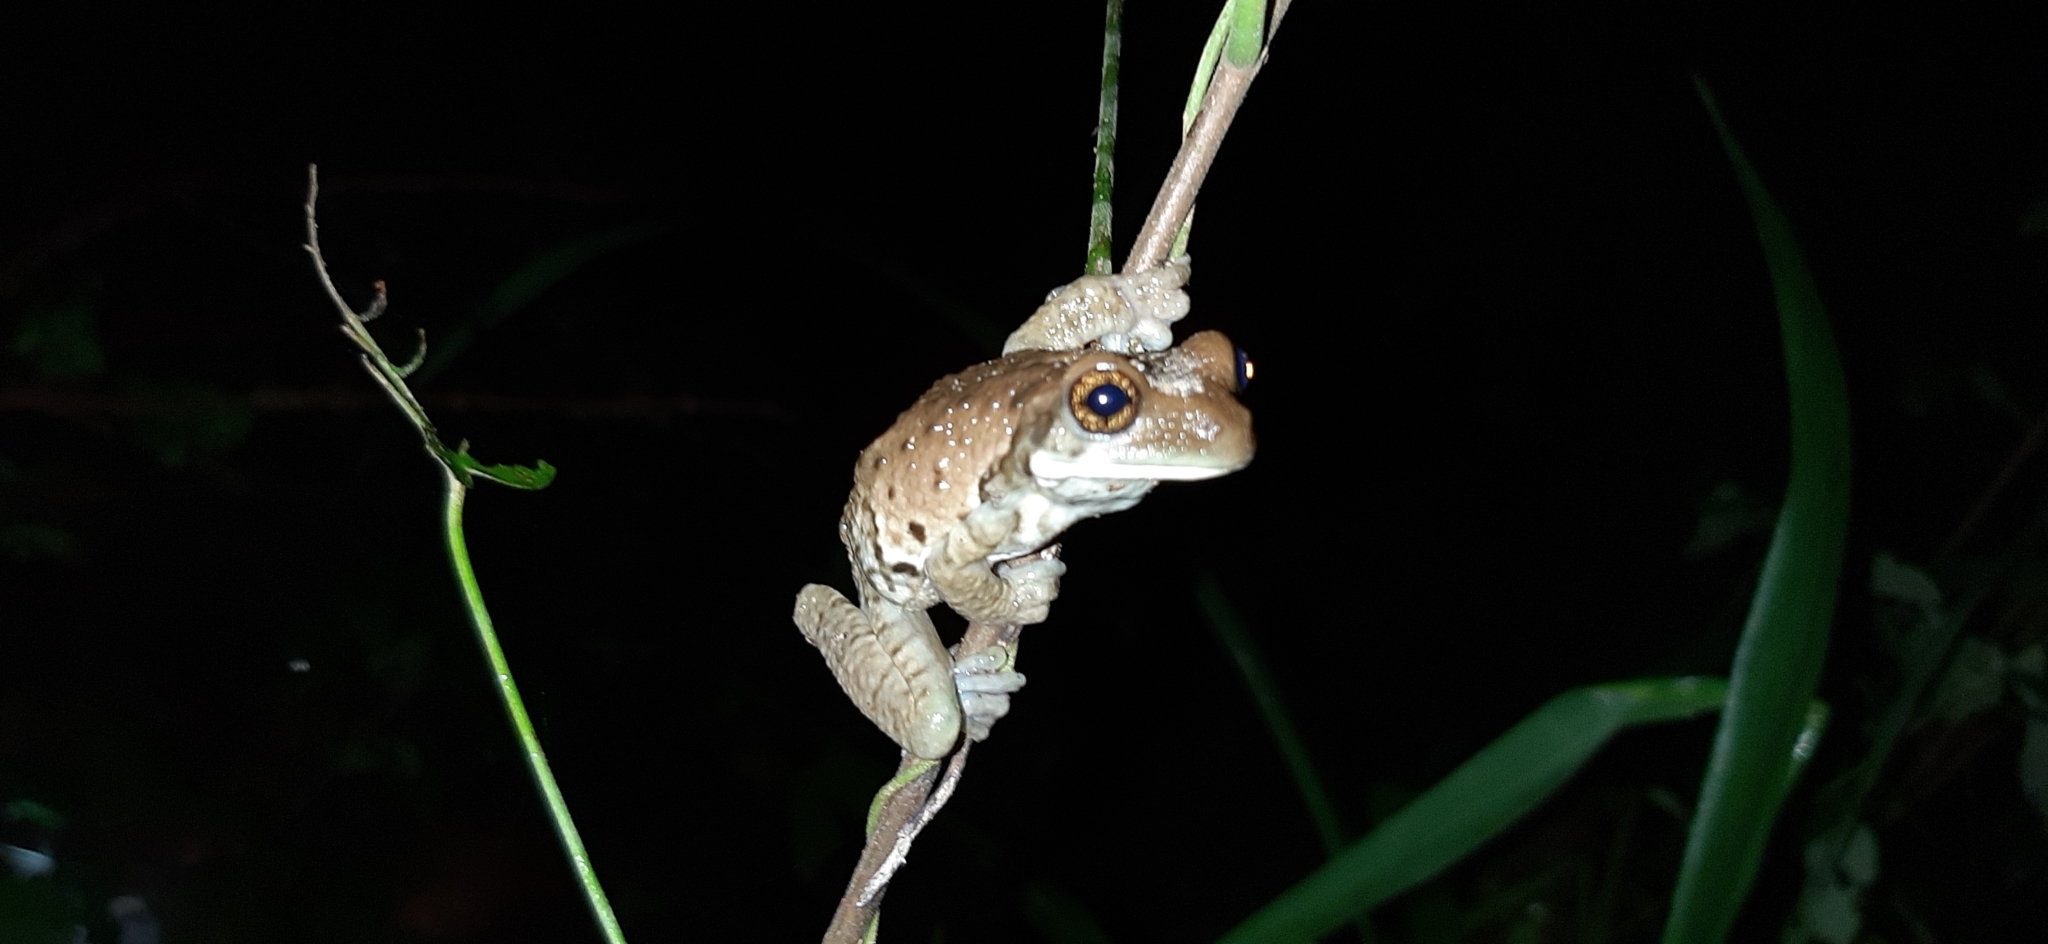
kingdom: Animalia
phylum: Chordata
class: Amphibia
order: Anura
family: Hylidae
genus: Trachycephalus
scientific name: Trachycephalus typhonius
